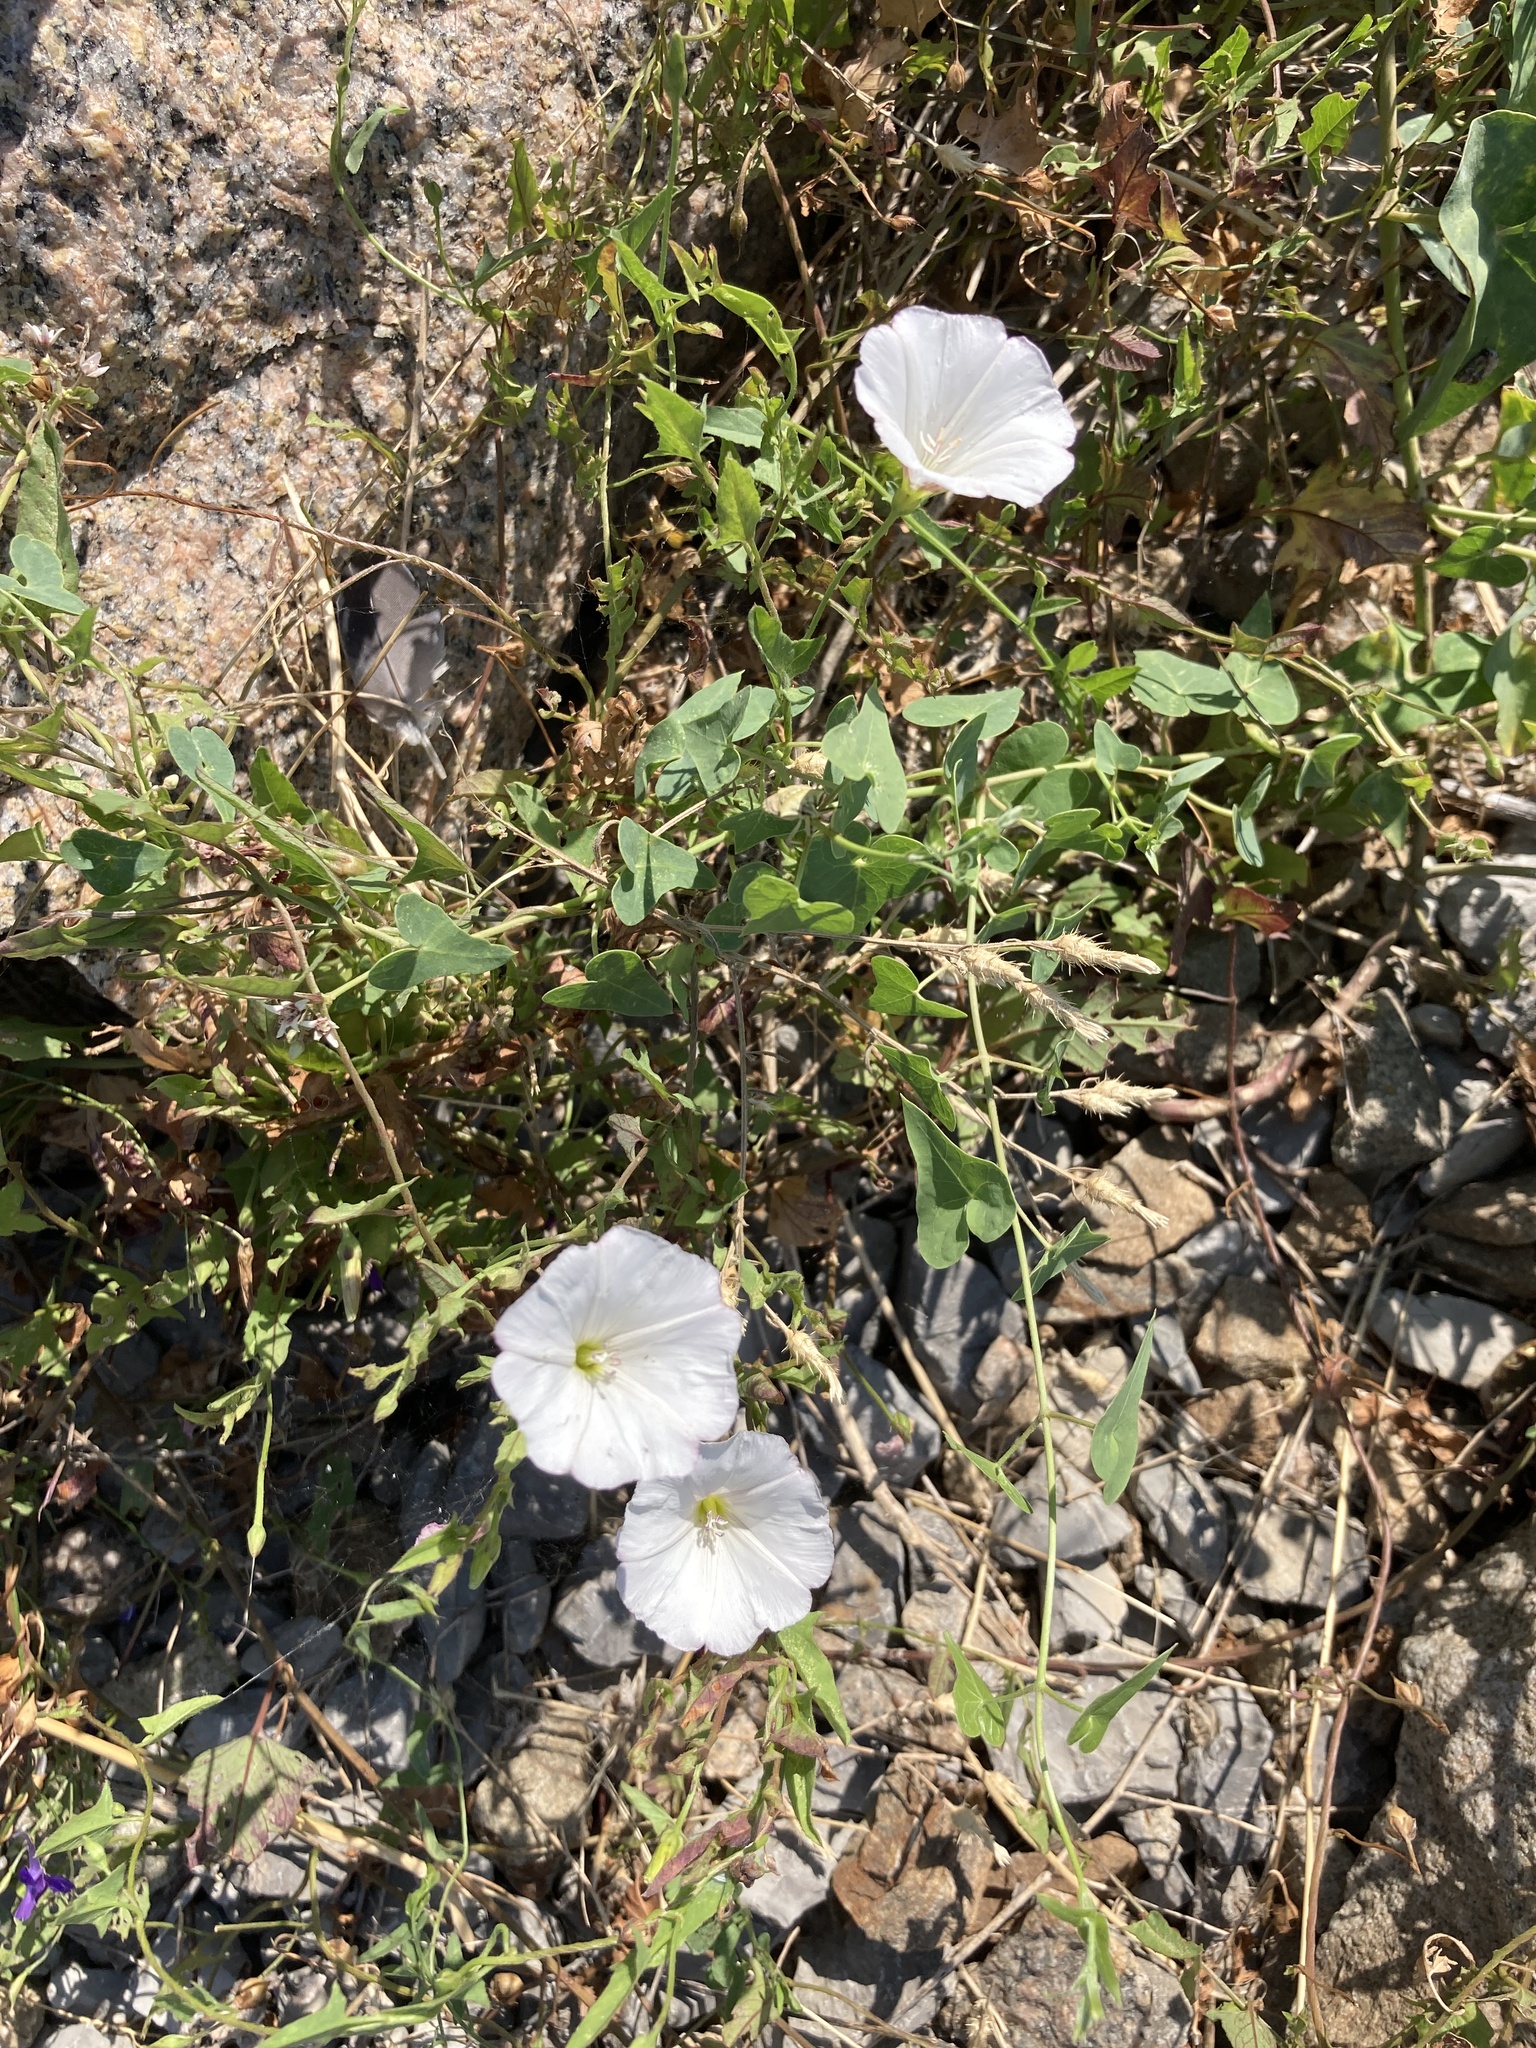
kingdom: Plantae
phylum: Tracheophyta
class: Magnoliopsida
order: Solanales
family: Convolvulaceae
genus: Convolvulus
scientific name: Convolvulus arvensis
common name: Field bindweed
